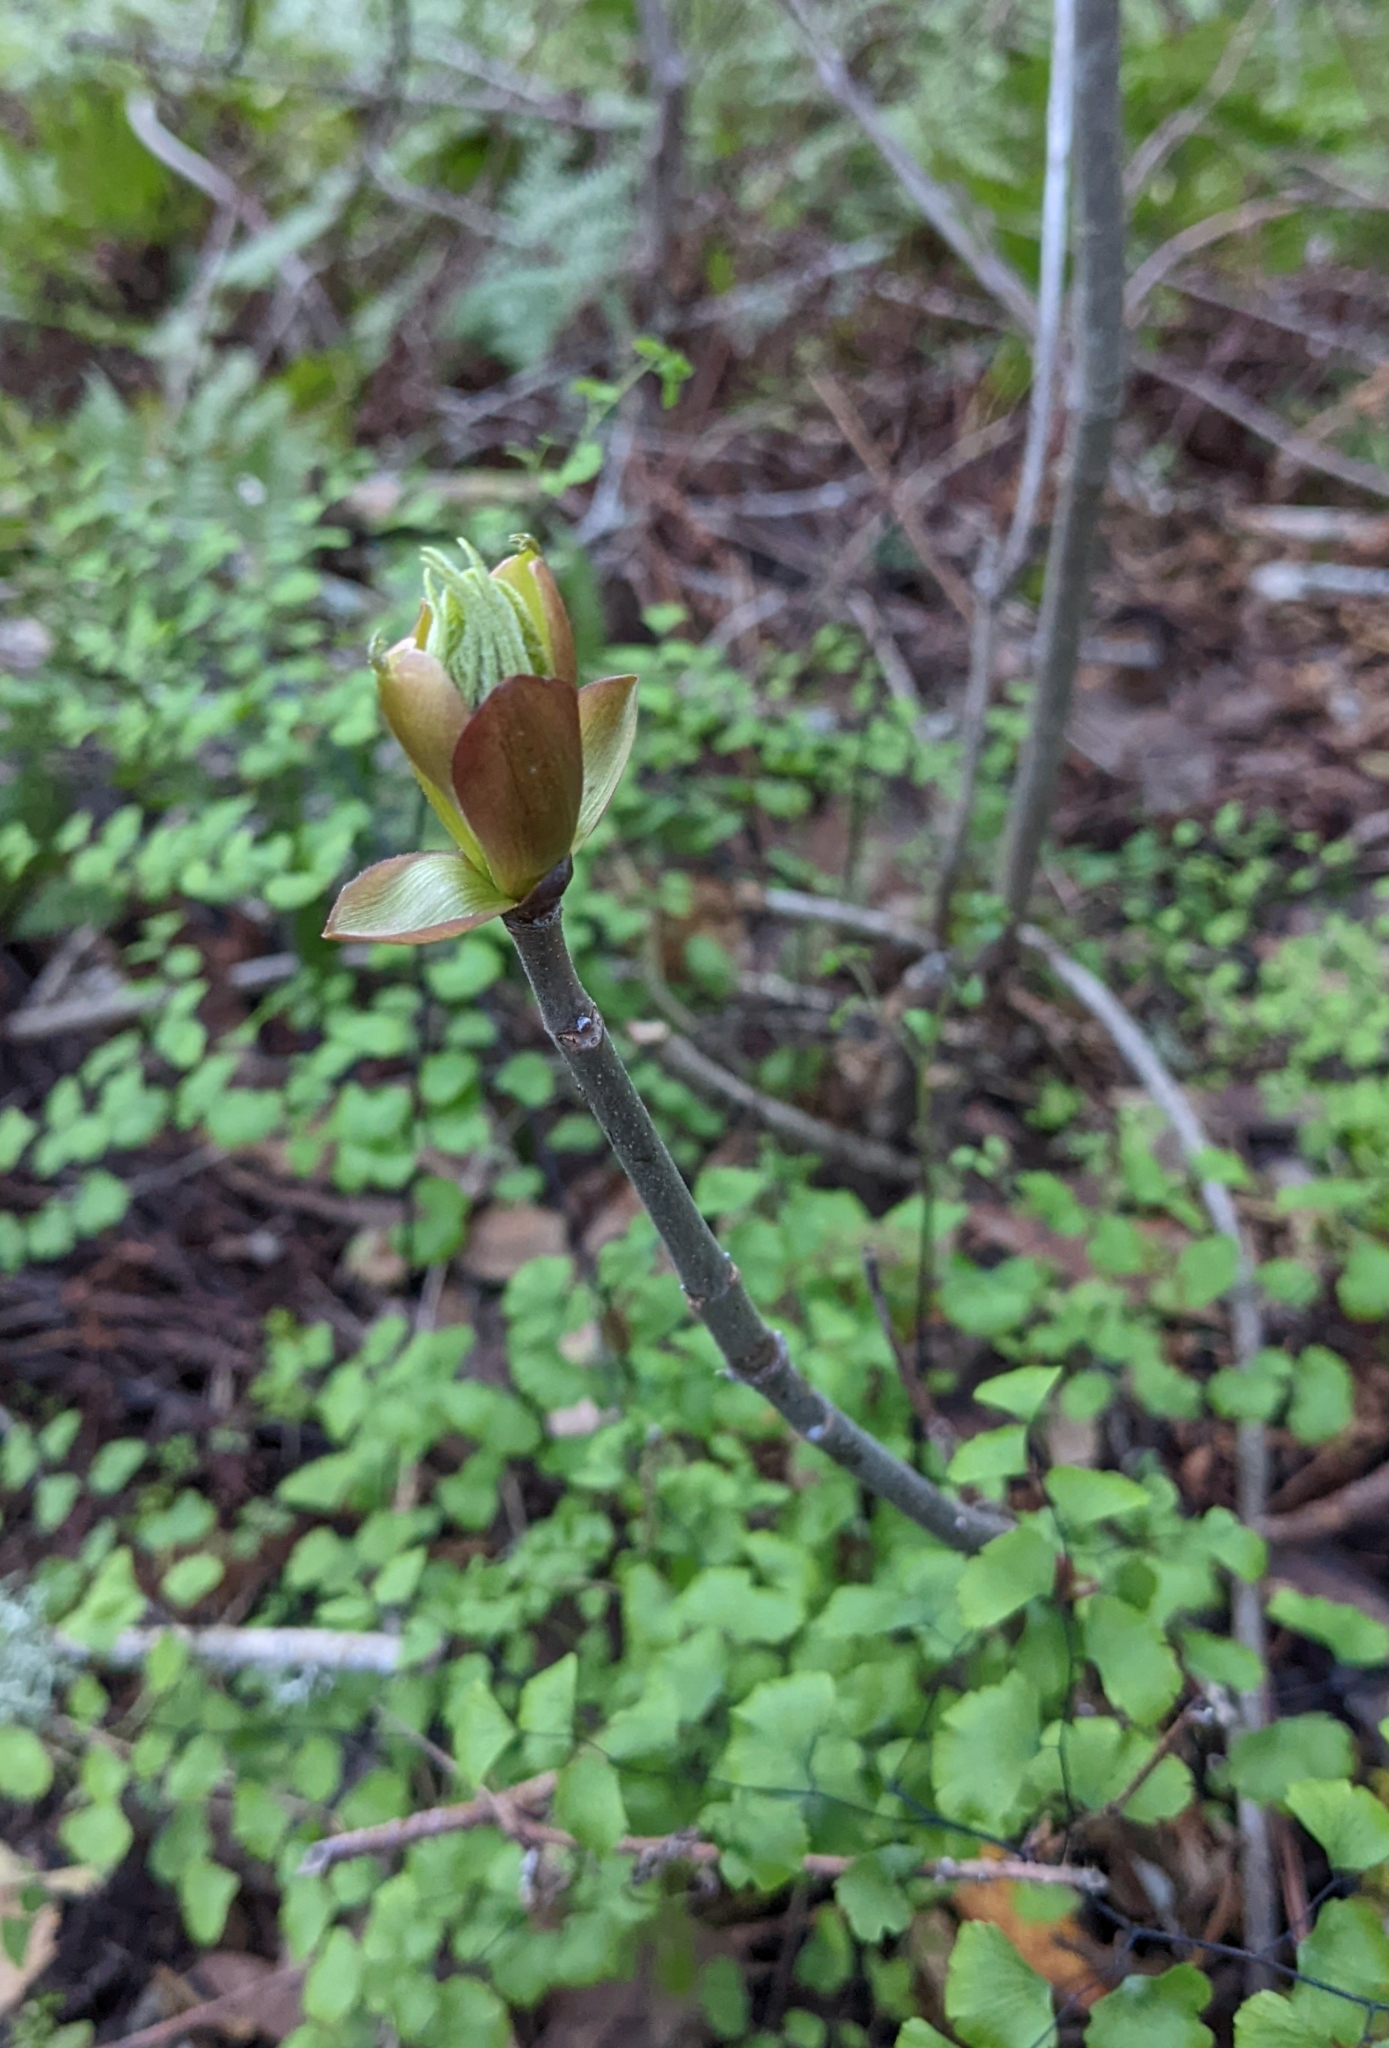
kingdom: Plantae
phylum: Tracheophyta
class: Magnoliopsida
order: Sapindales
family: Sapindaceae
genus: Aesculus
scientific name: Aesculus californica
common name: California buckeye
